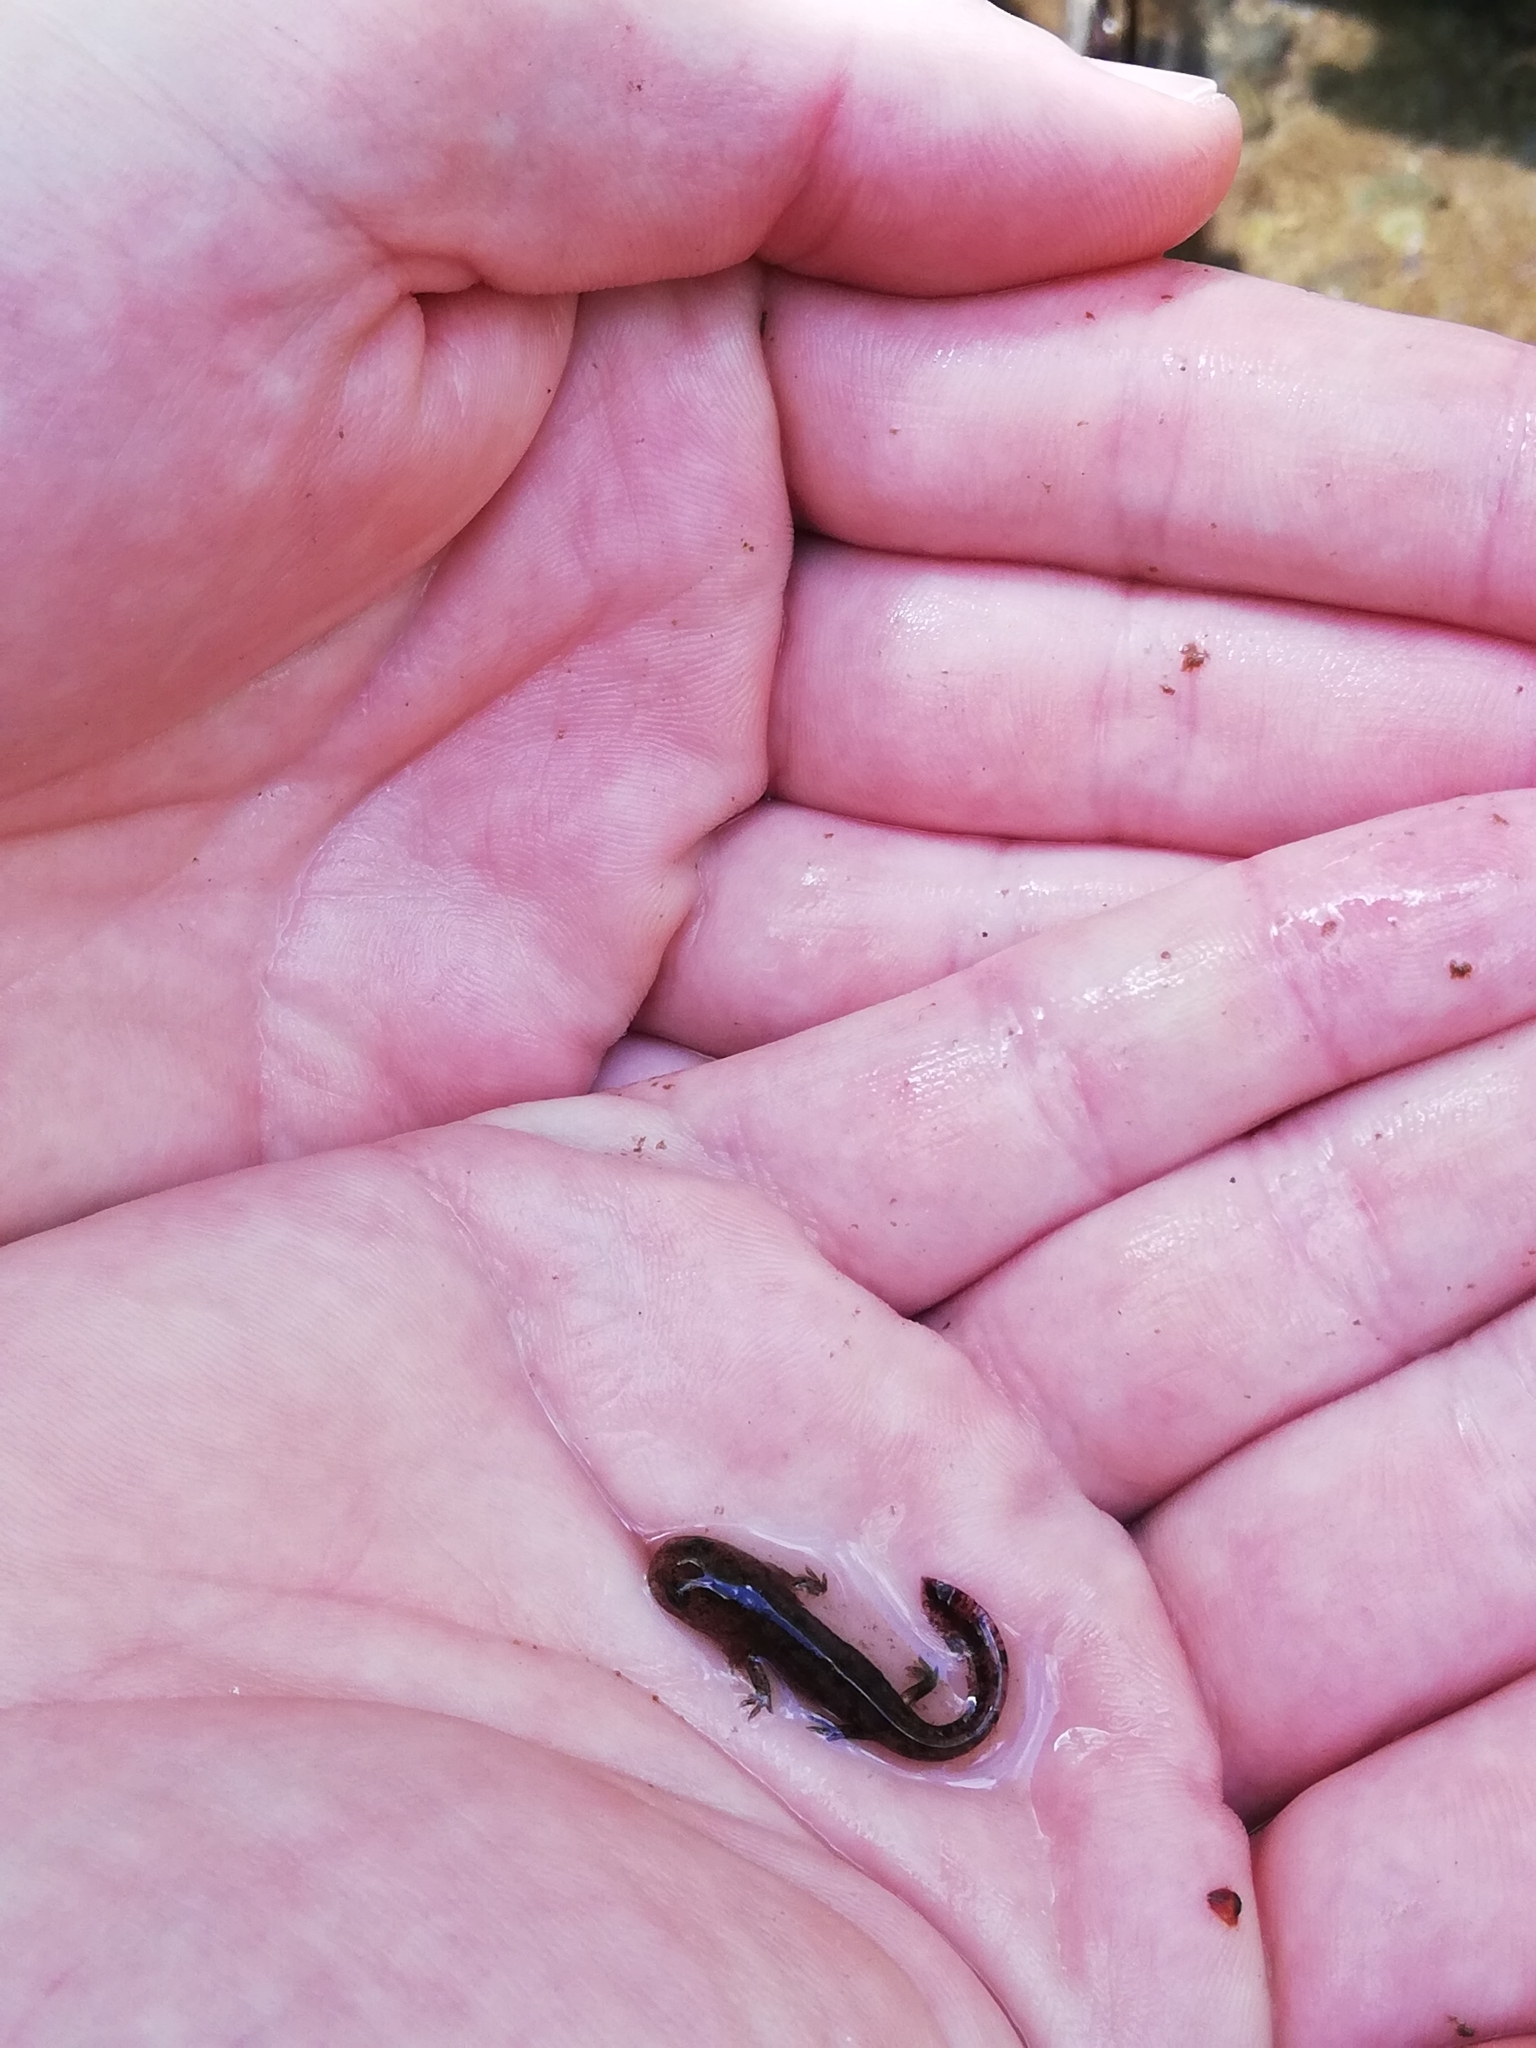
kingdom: Animalia
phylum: Chordata
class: Amphibia
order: Caudata
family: Salamandridae
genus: Salamandra
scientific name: Salamandra salamandra
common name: Fire salamander
